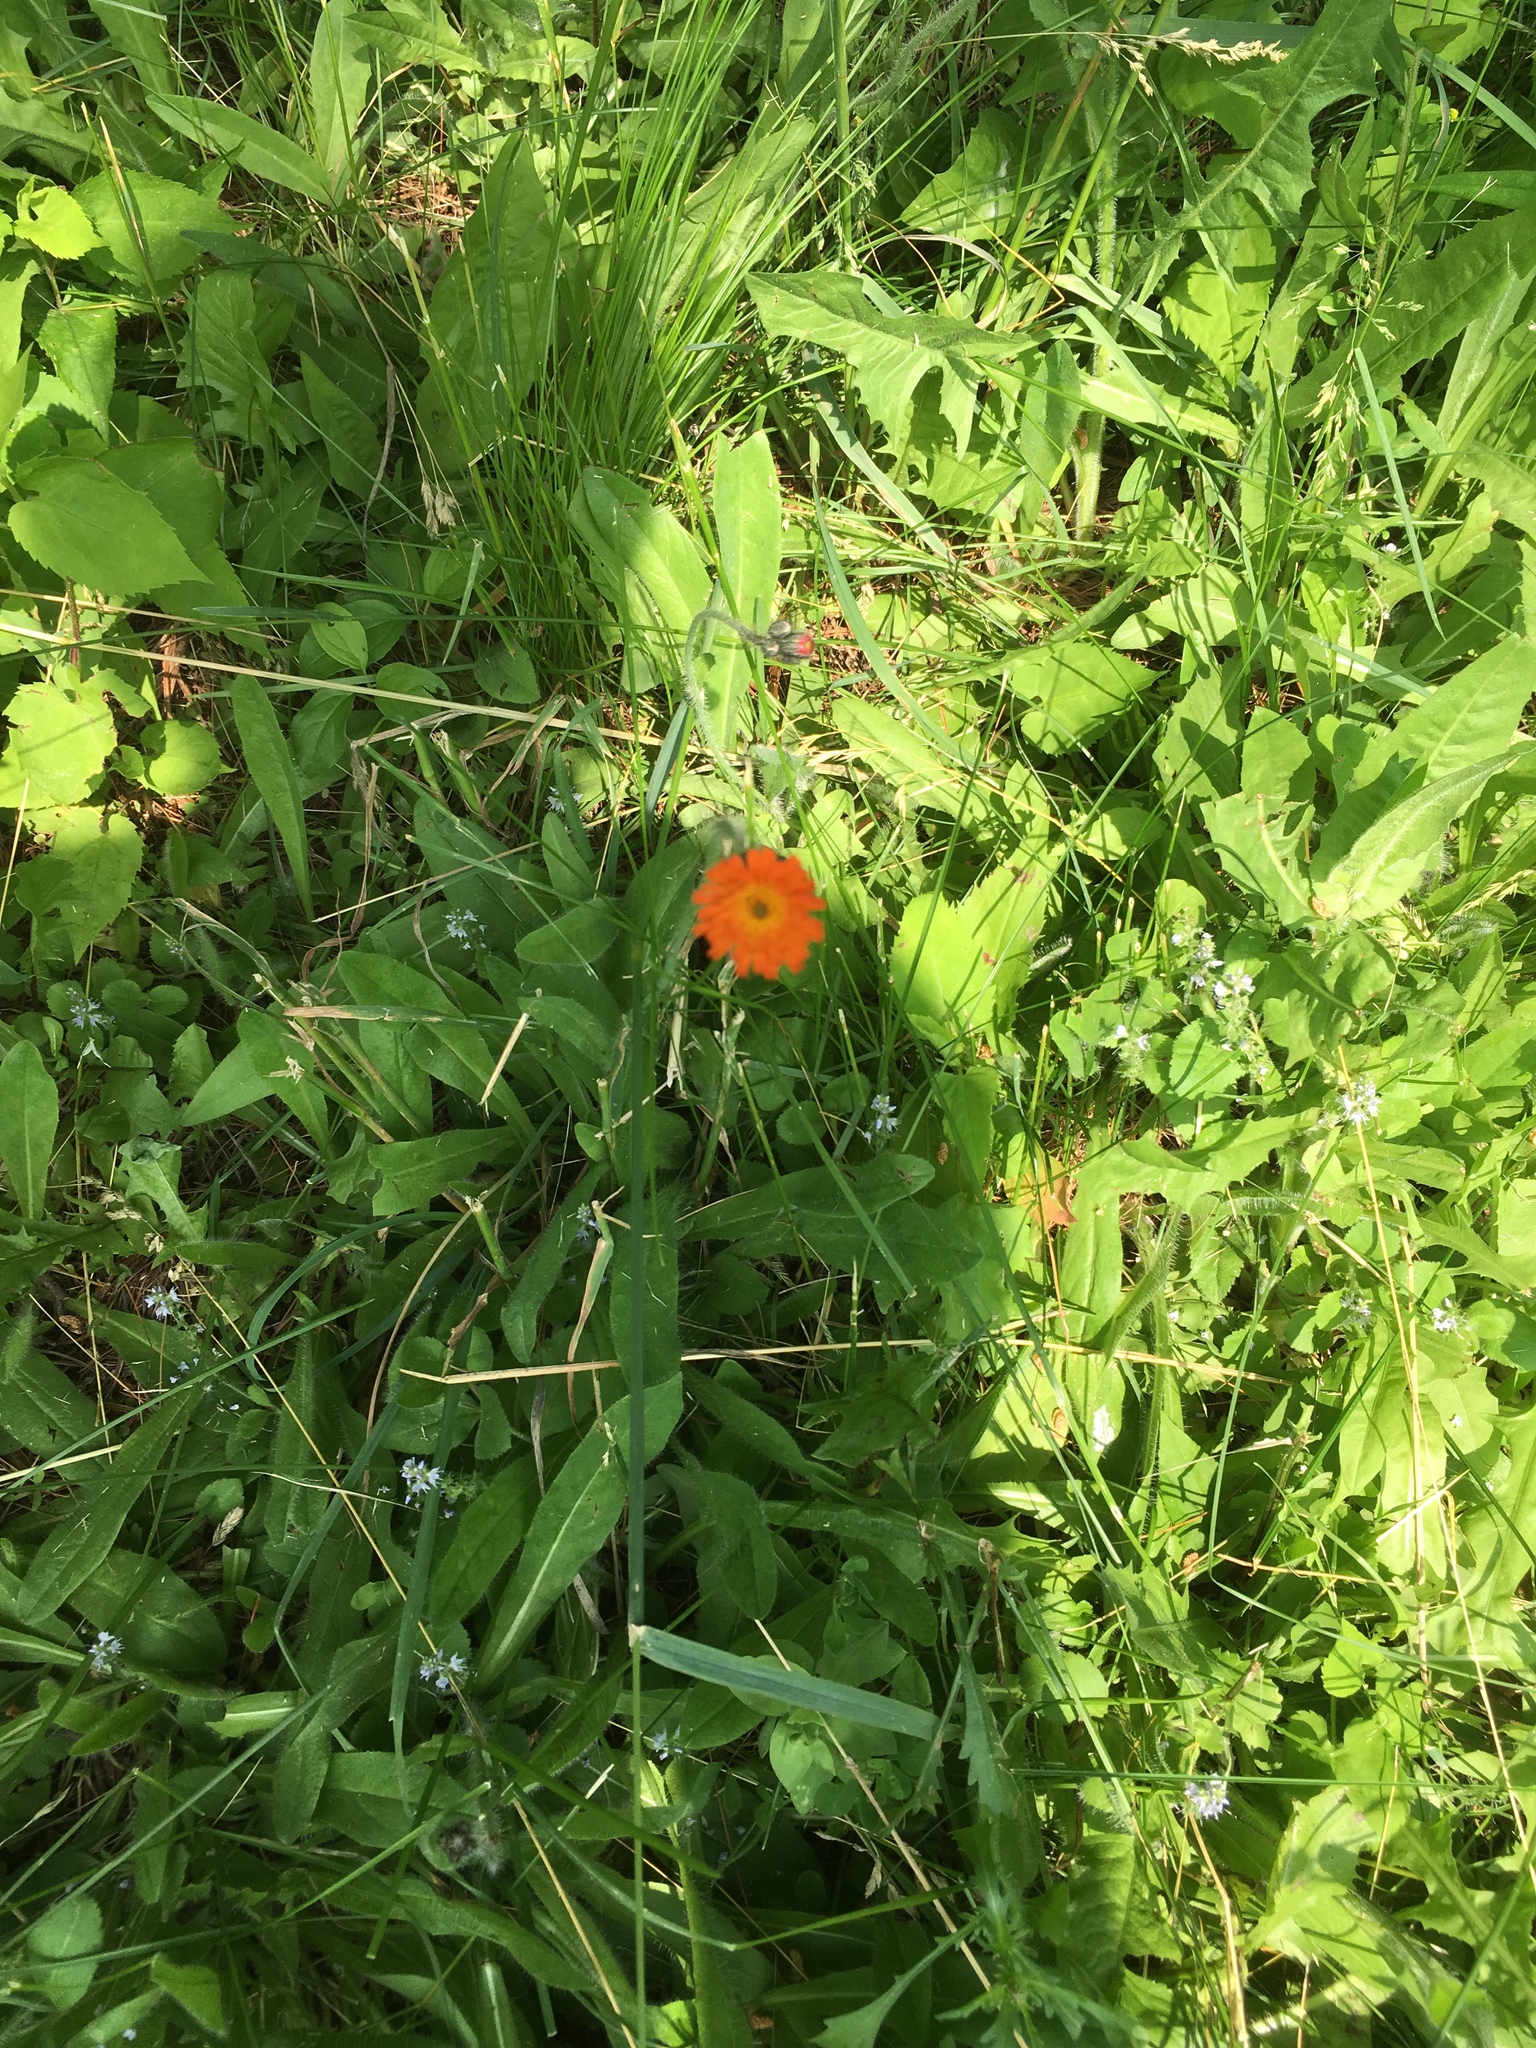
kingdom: Plantae
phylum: Tracheophyta
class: Magnoliopsida
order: Asterales
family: Asteraceae
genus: Pilosella
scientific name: Pilosella aurantiaca
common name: Fox-and-cubs
